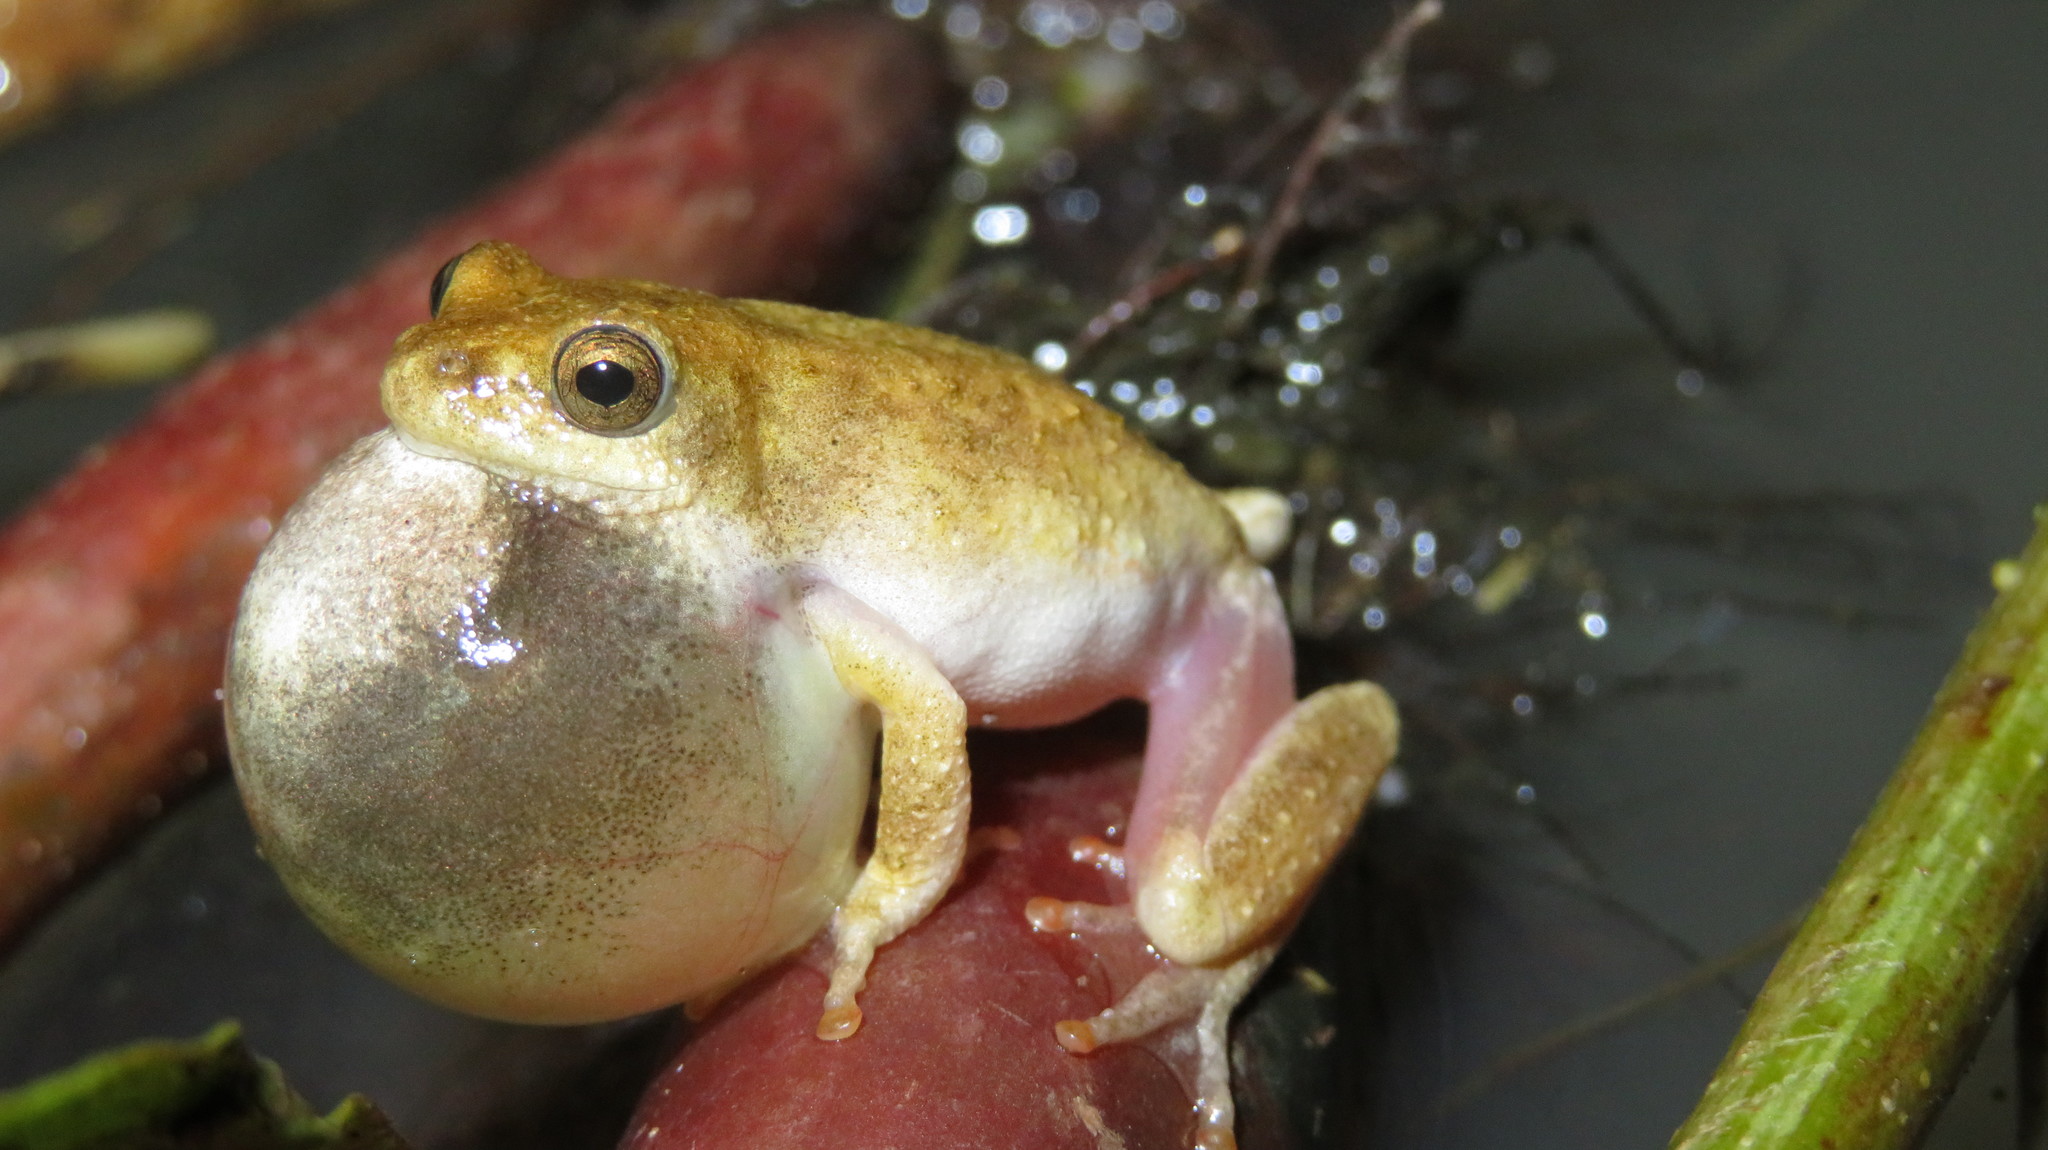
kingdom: Animalia
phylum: Chordata
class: Amphibia
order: Anura
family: Hyperoliidae
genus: Hyperolius
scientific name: Hyperolius glandicolor
